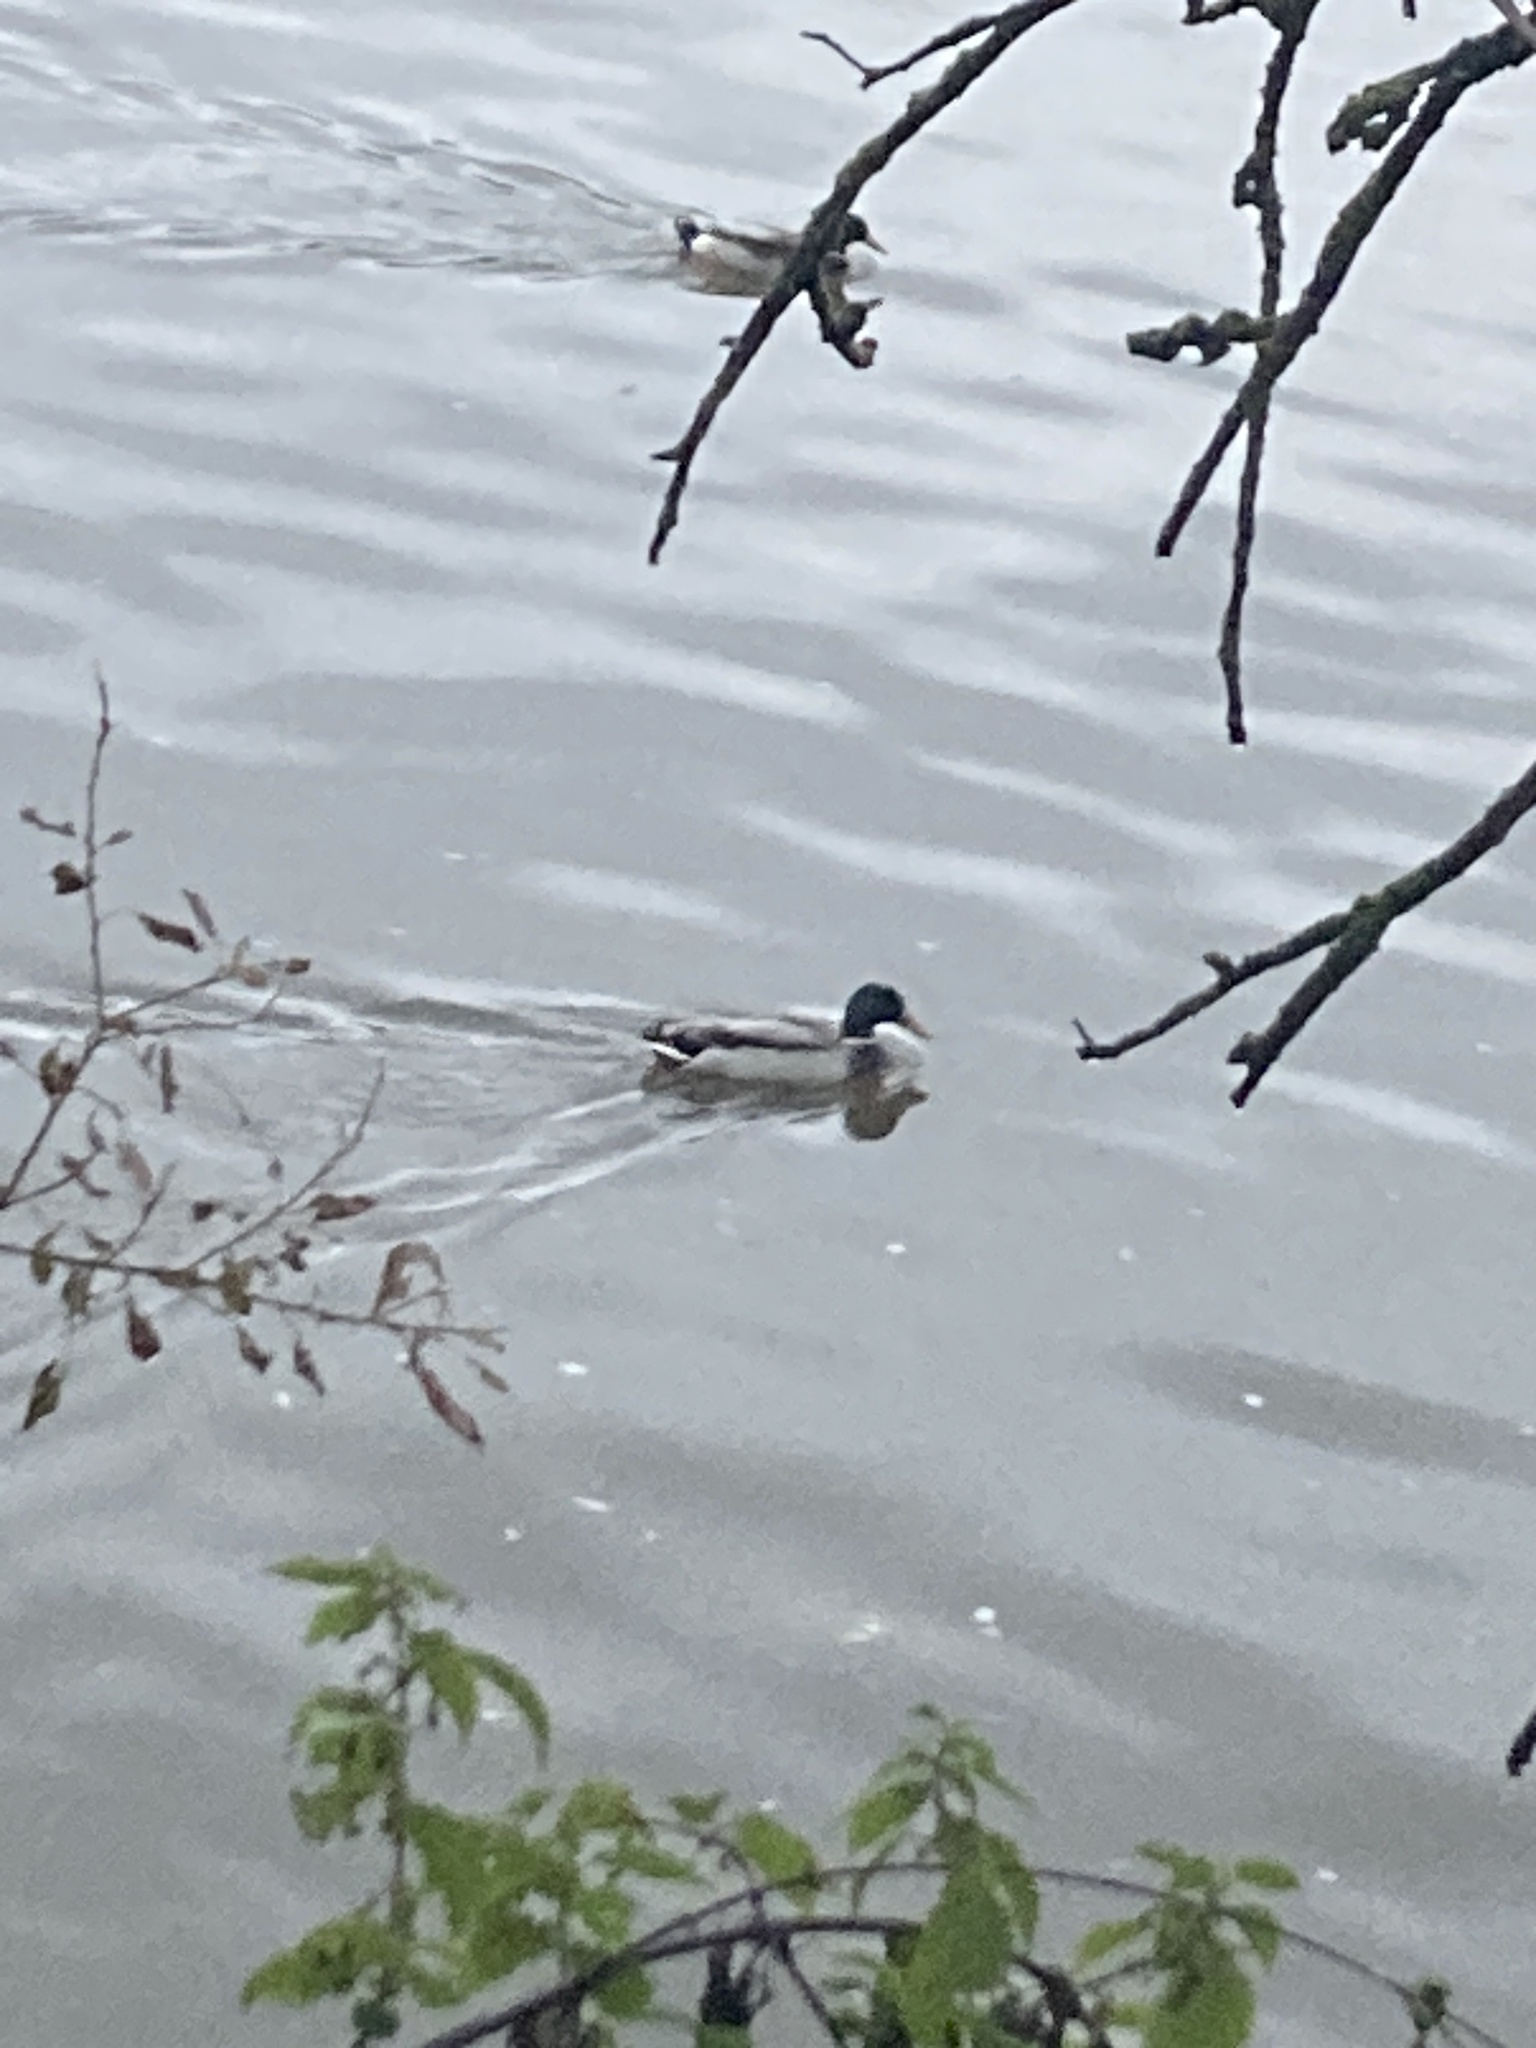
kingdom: Animalia
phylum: Chordata
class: Aves
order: Anseriformes
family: Anatidae
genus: Anas
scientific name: Anas platyrhynchos
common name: Mallard
